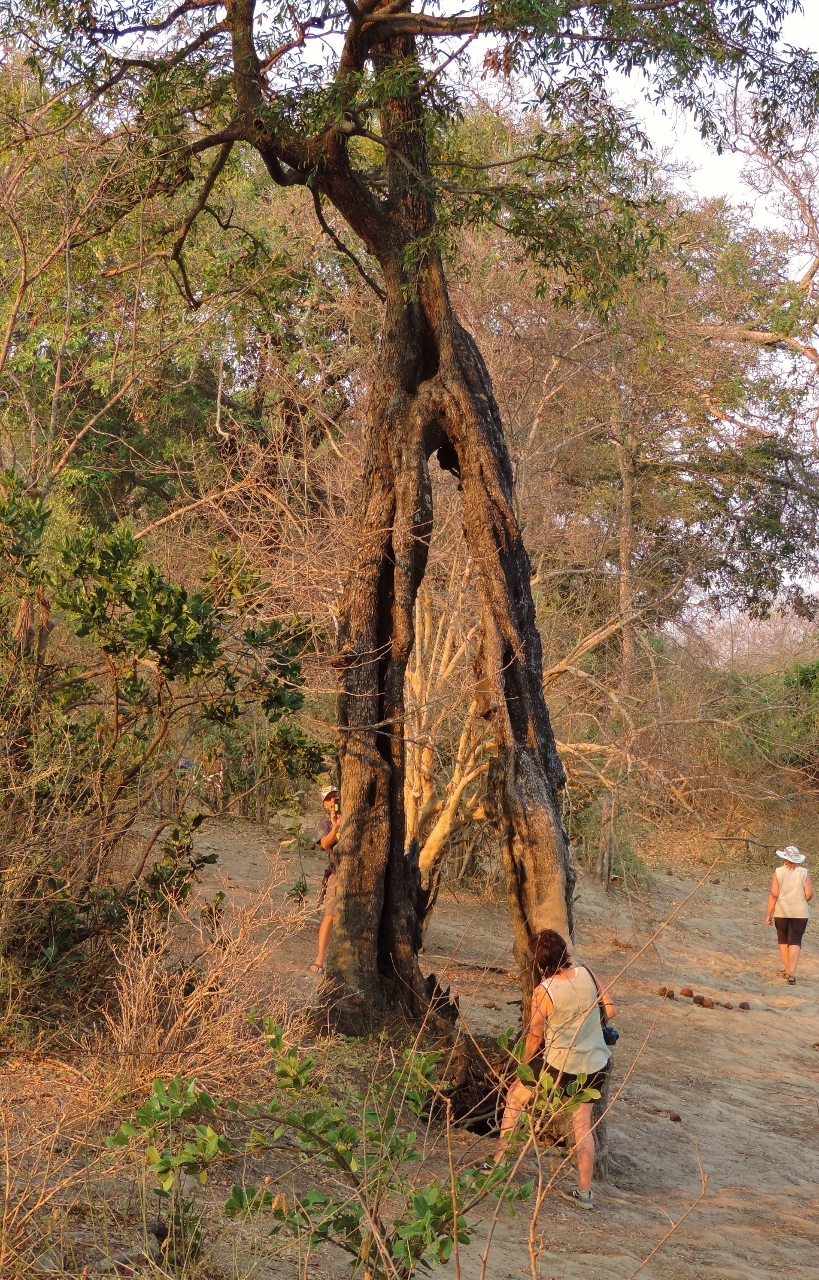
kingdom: Plantae
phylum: Tracheophyta
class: Magnoliopsida
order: Ericales
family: Ebenaceae
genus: Diospyros
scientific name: Diospyros mespiliformis
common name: Ebony diospyros
